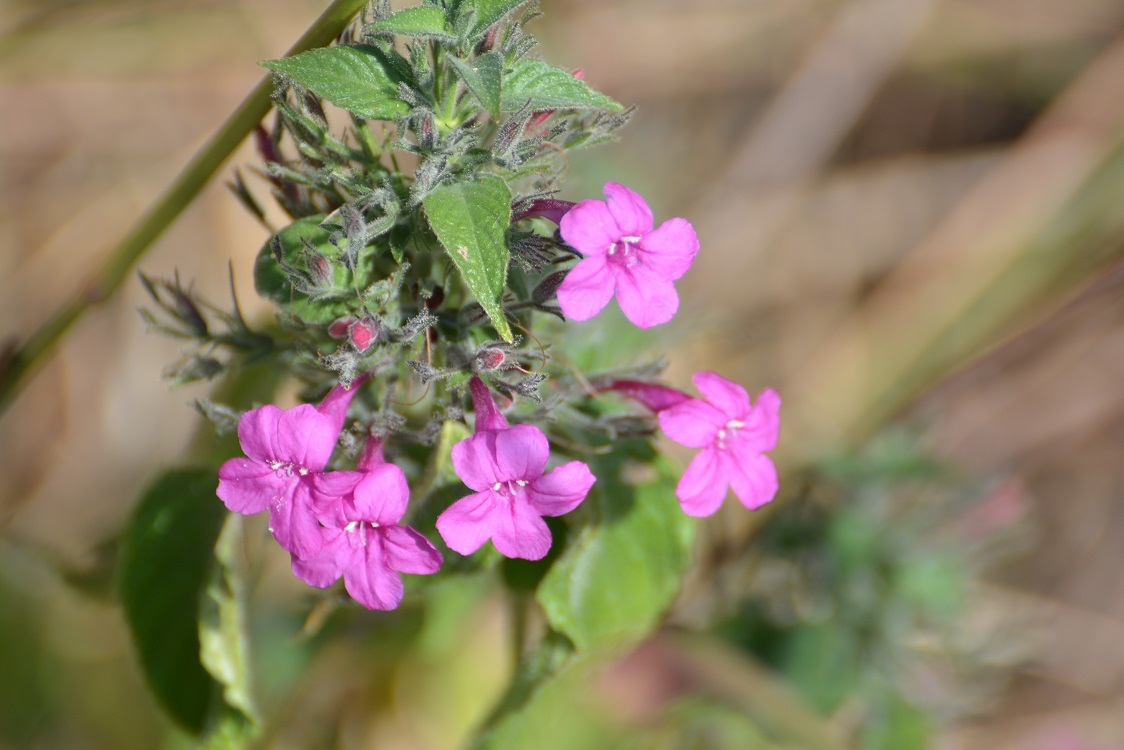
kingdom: Plantae
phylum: Tracheophyta
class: Magnoliopsida
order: Lamiales
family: Acanthaceae
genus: Ruellia
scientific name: Ruellia inundata
